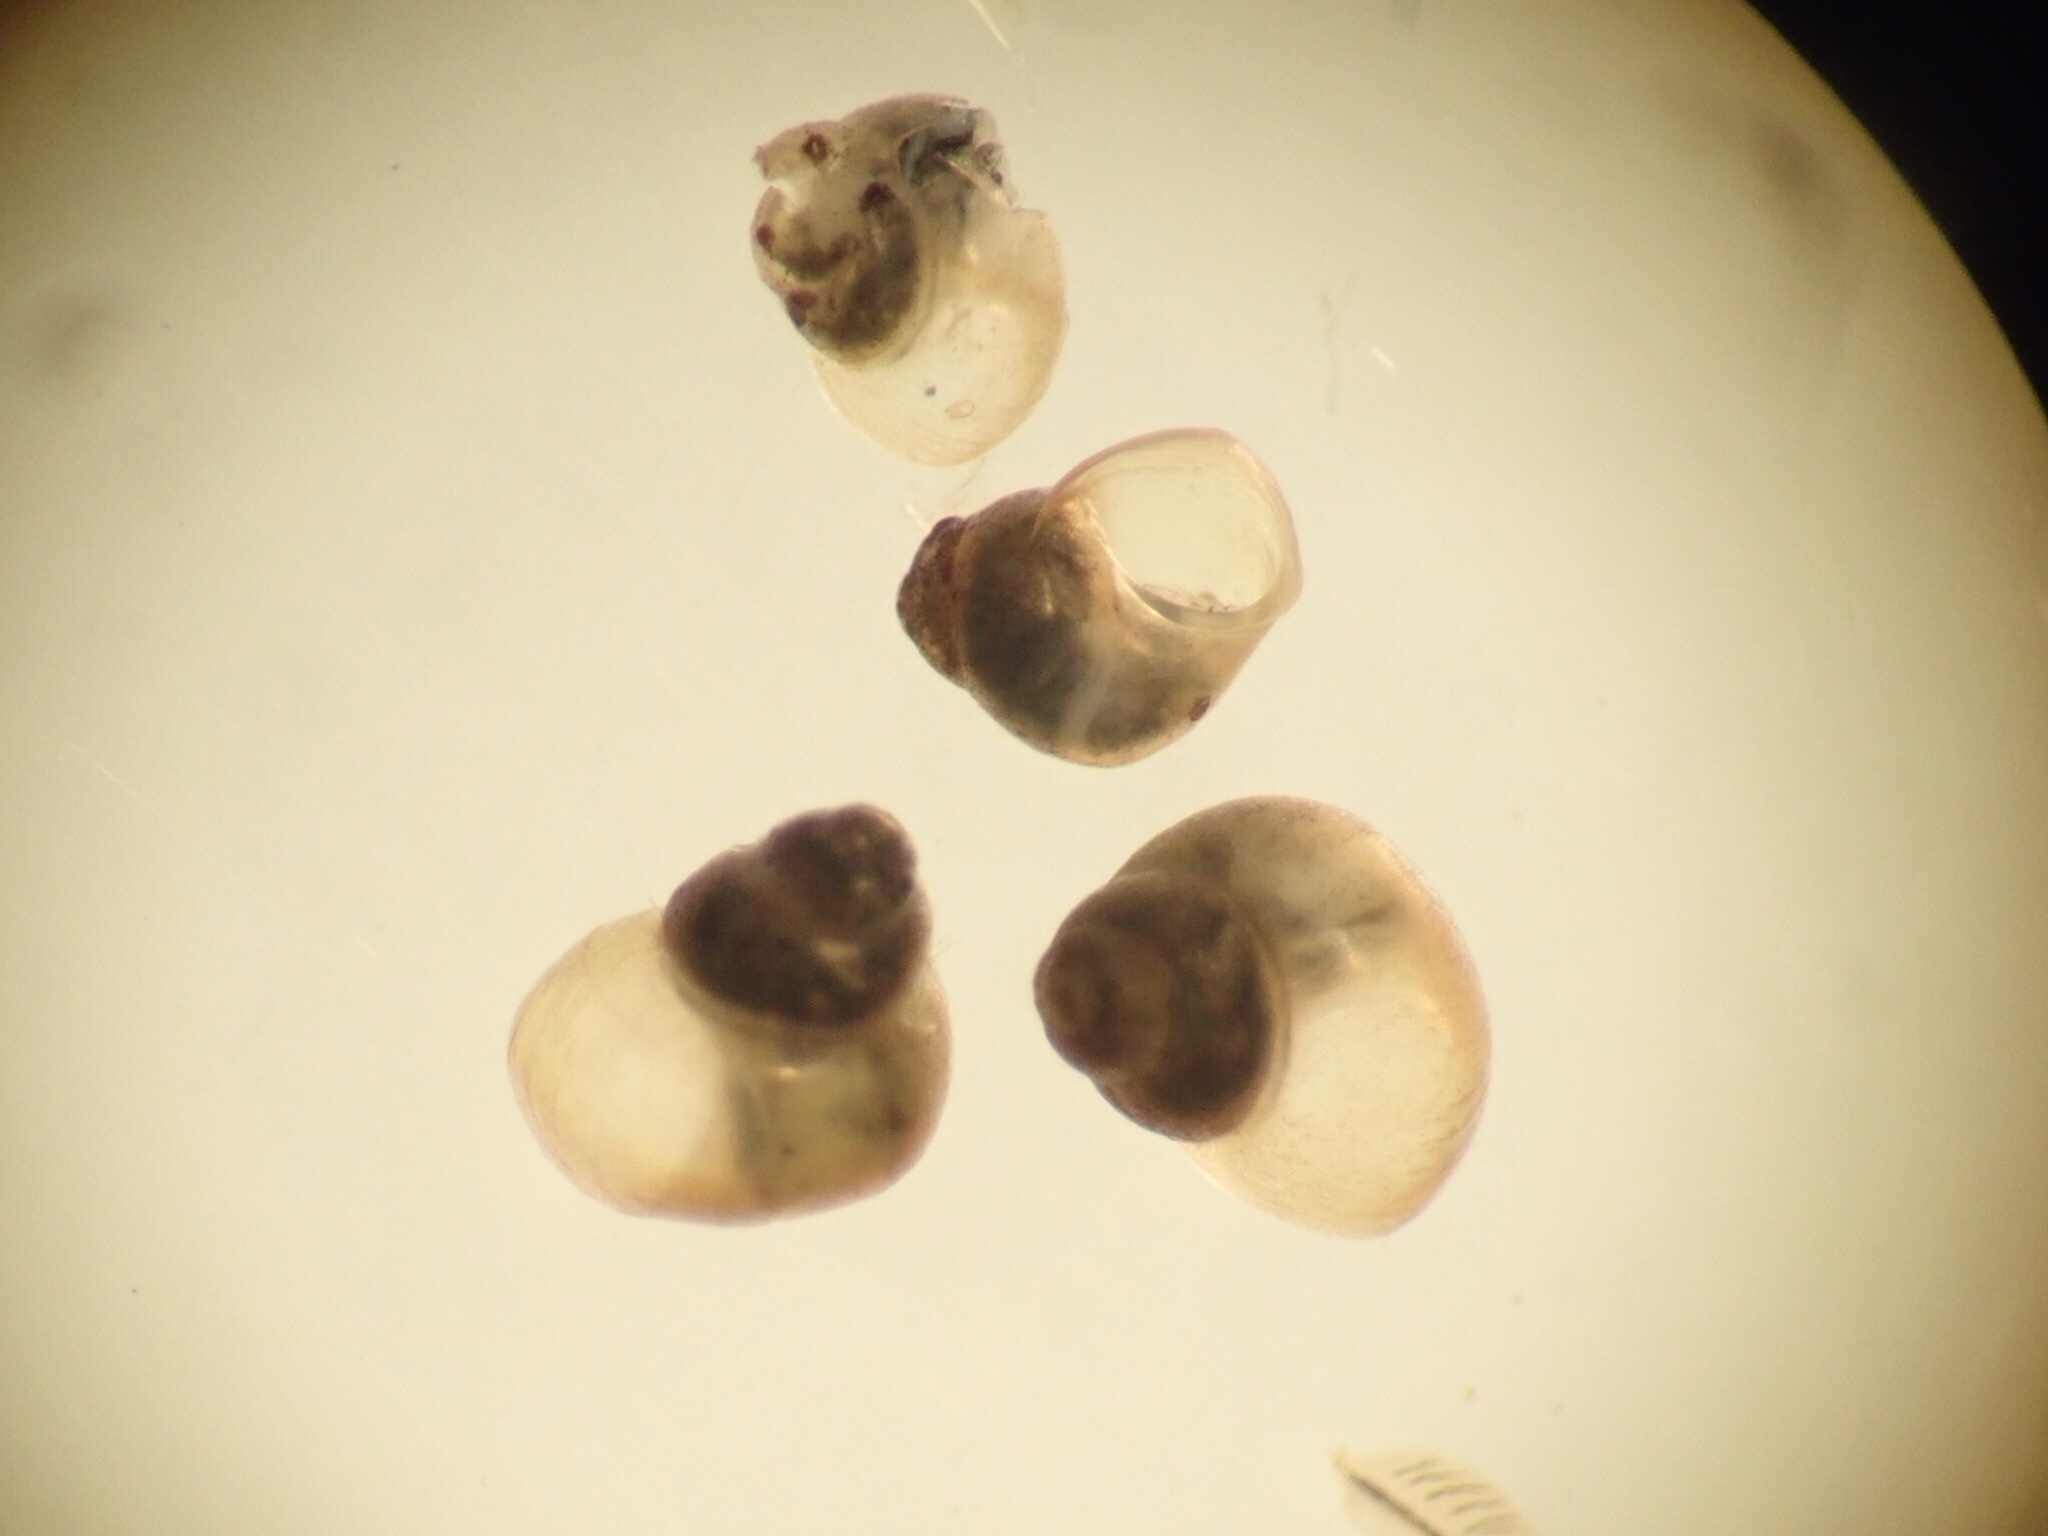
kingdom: Animalia
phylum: Mollusca
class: Gastropoda
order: Littorinimorpha
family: Tateidae
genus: Potamopyrgus
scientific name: Potamopyrgus antipodarum
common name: Jenkins' spire snail
